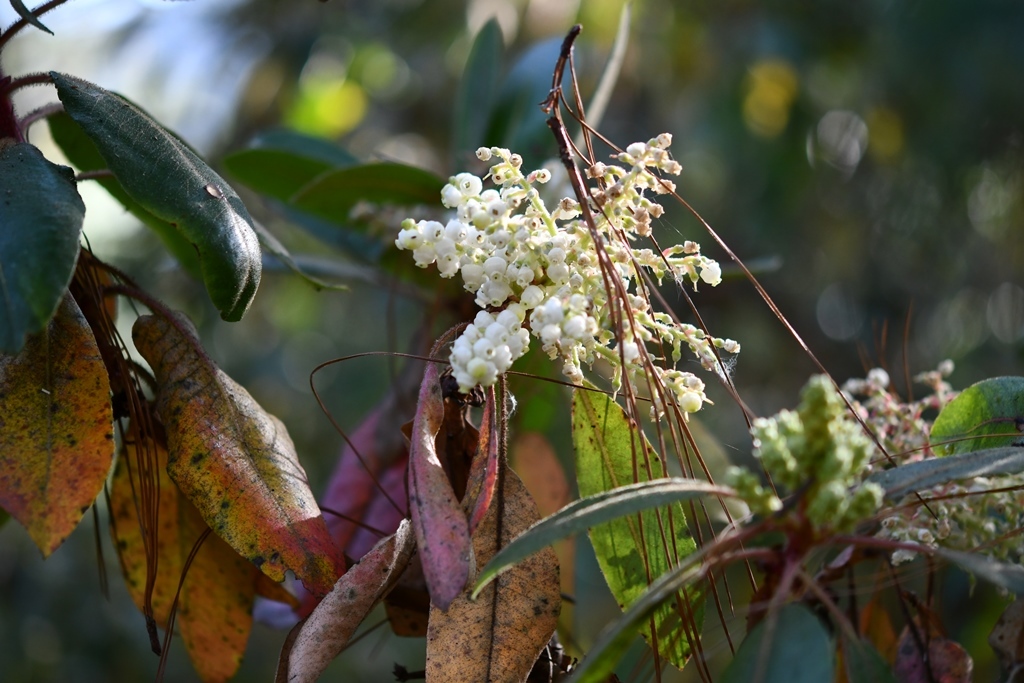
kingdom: Plantae
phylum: Tracheophyta
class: Magnoliopsida
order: Ericales
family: Ericaceae
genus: Arbutus
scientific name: Arbutus xalapensis
